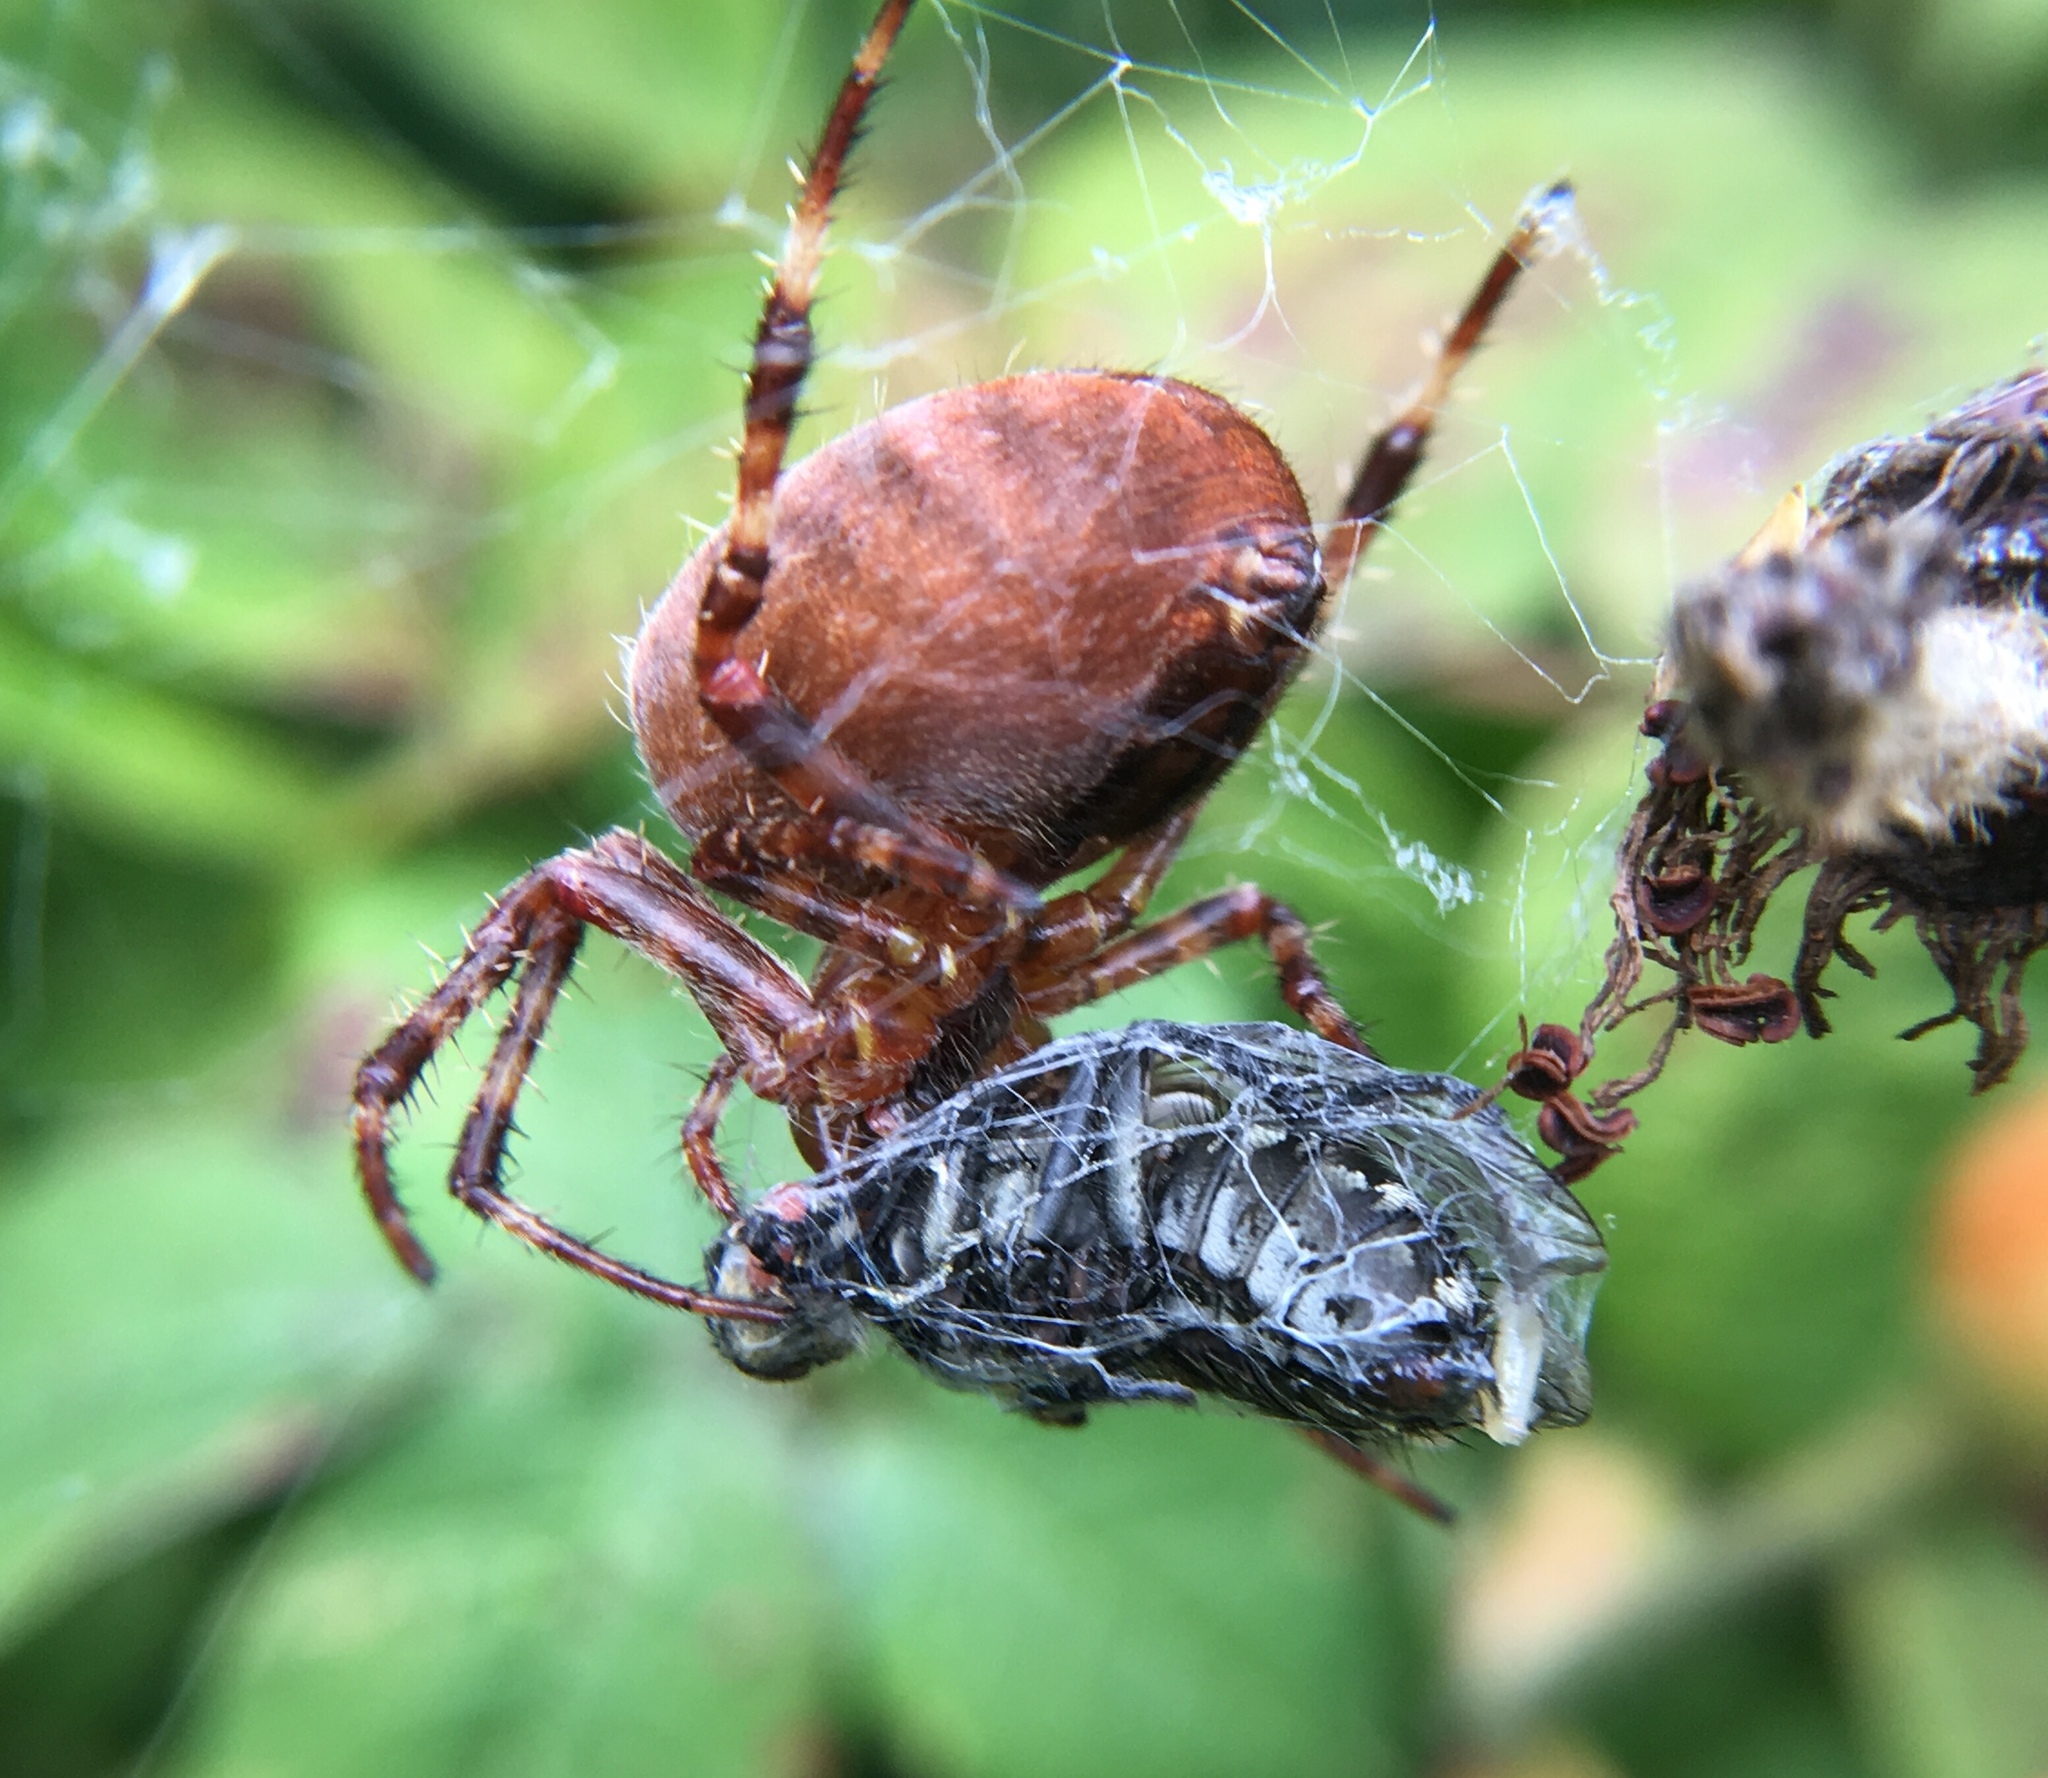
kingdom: Animalia
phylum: Arthropoda
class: Arachnida
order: Araneae
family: Araneidae
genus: Araneus
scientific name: Araneus diadematus
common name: Cross orbweaver
